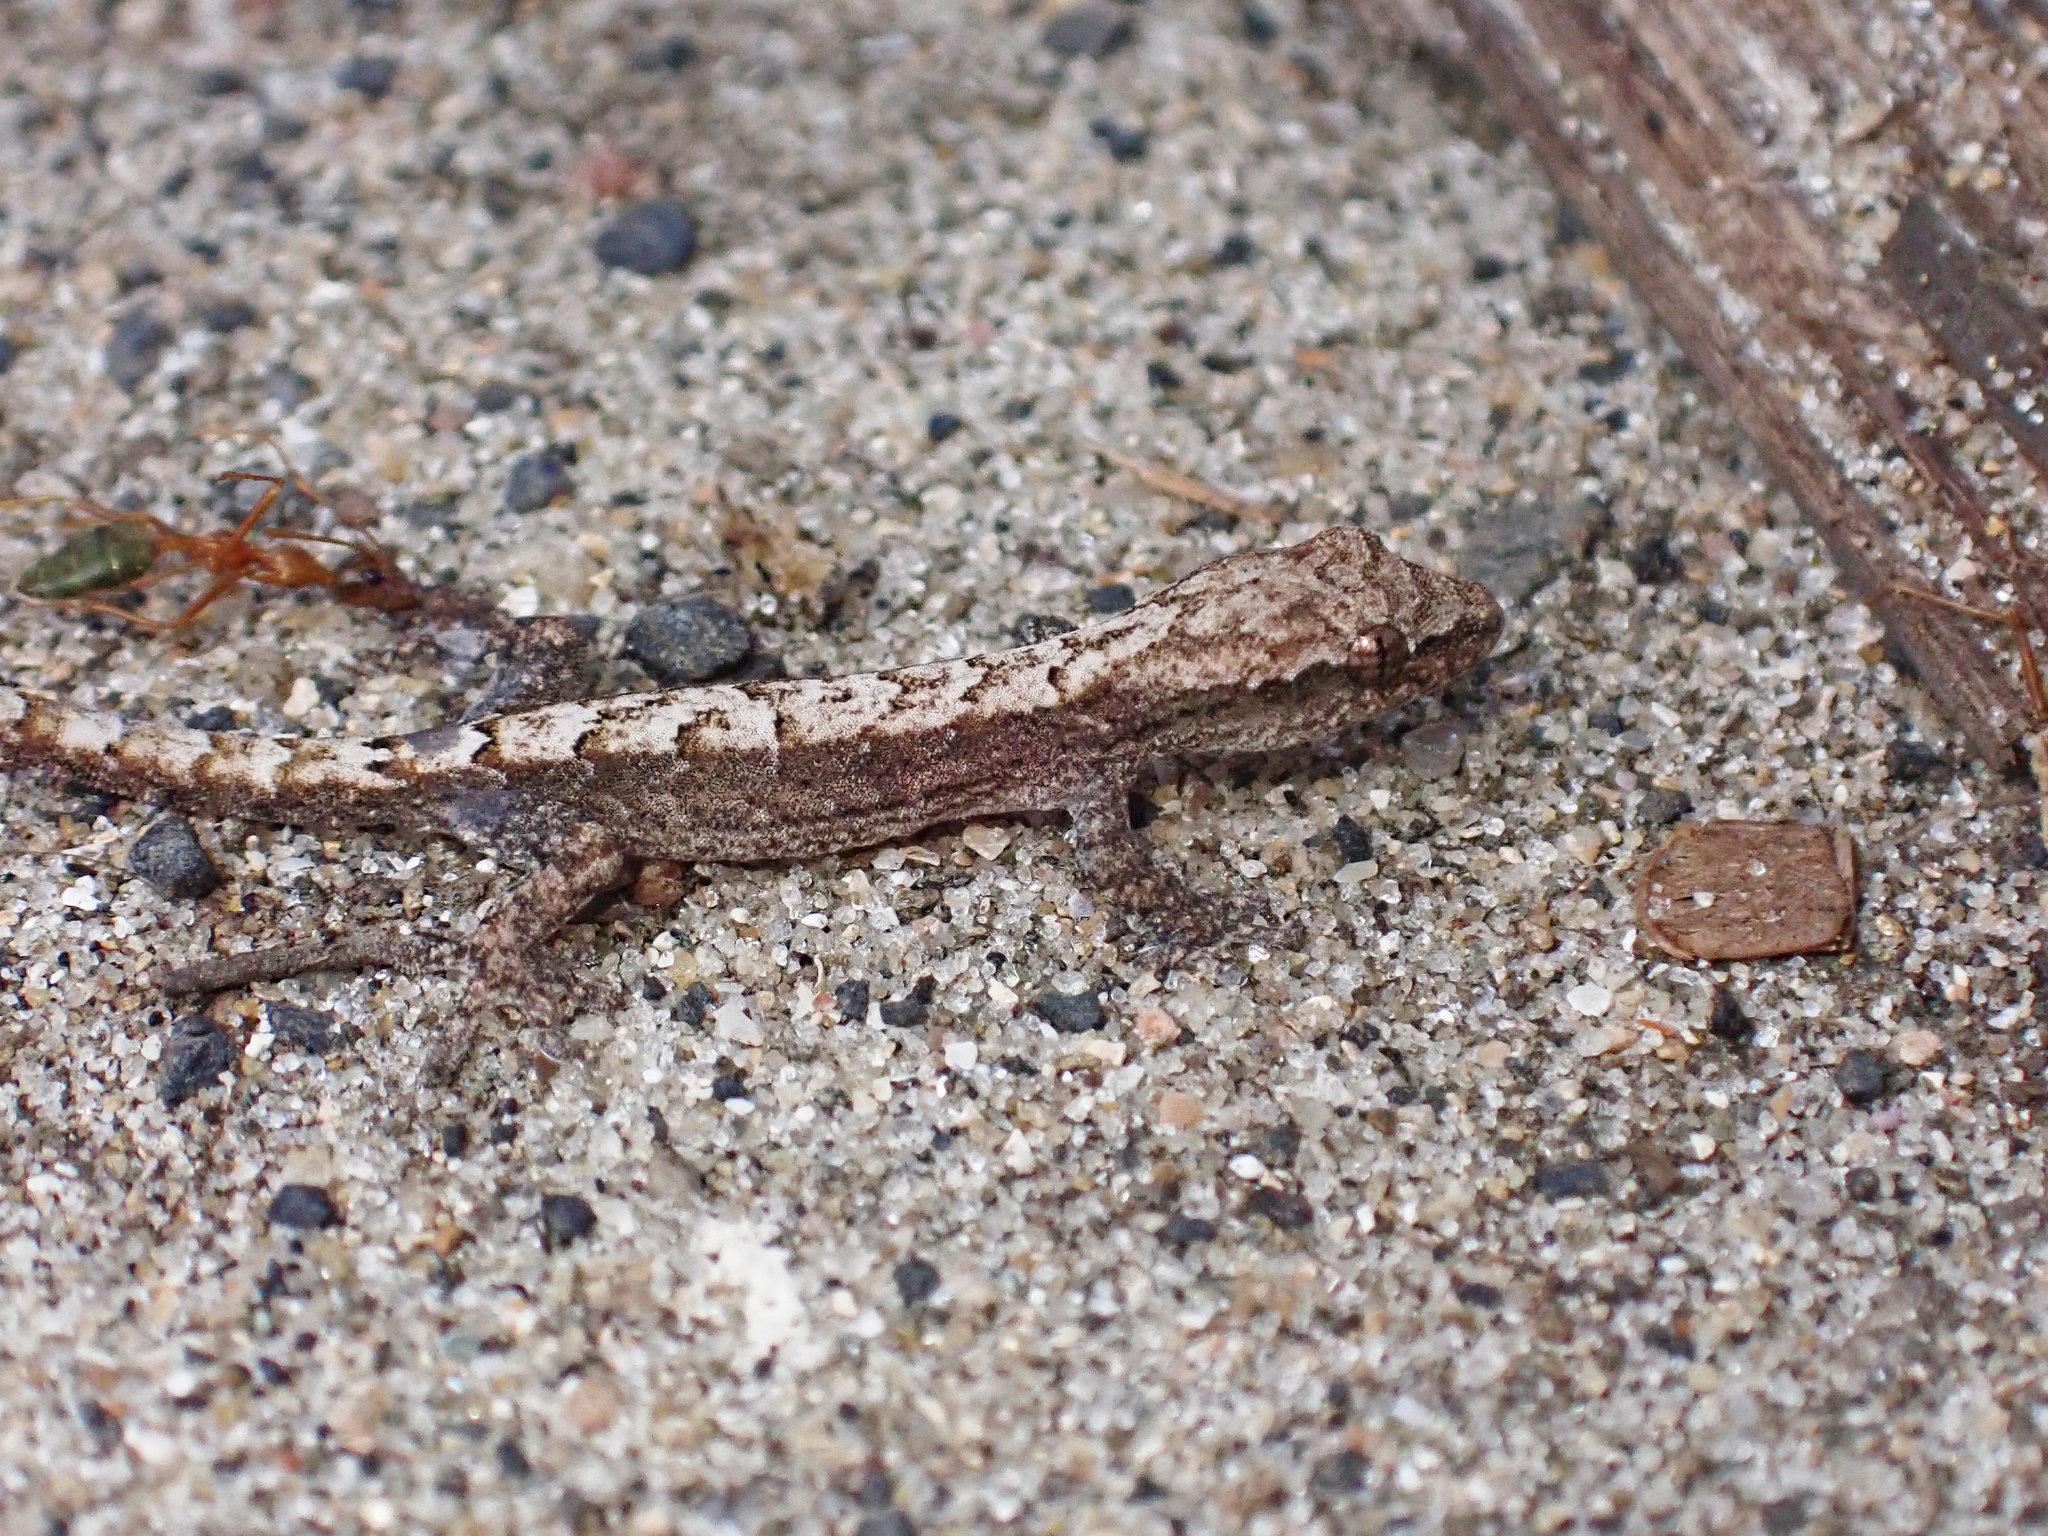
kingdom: Animalia
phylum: Chordata
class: Squamata
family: Gekkonidae
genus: Lepidodactylus
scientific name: Lepidodactylus lugubris
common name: Mourning gecko
